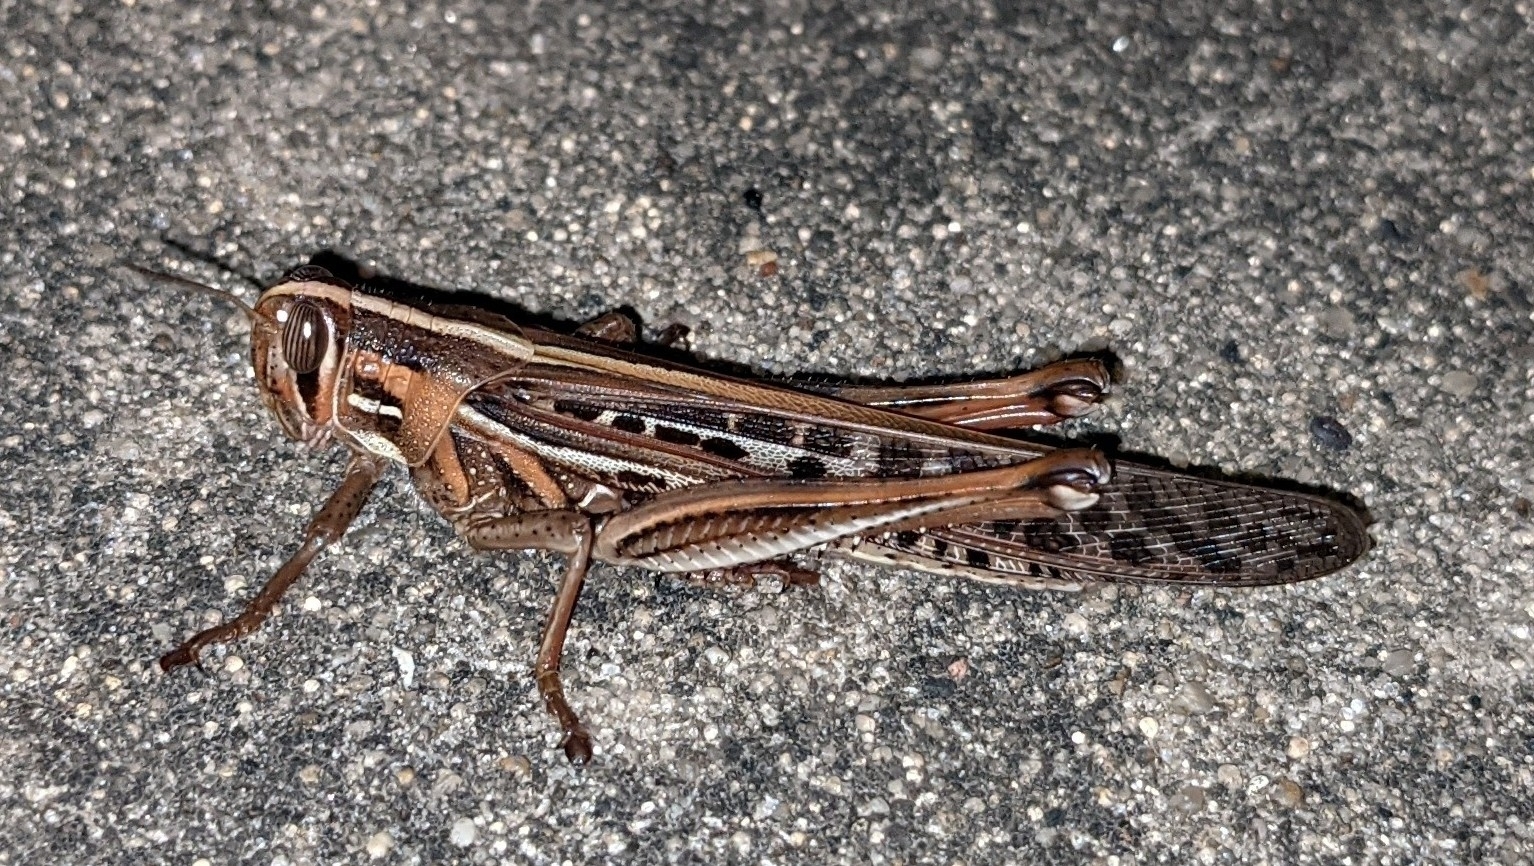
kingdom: Animalia
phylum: Arthropoda
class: Insecta
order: Orthoptera
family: Acrididae
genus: Schistocerca
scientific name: Schistocerca americana
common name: American bird locust
